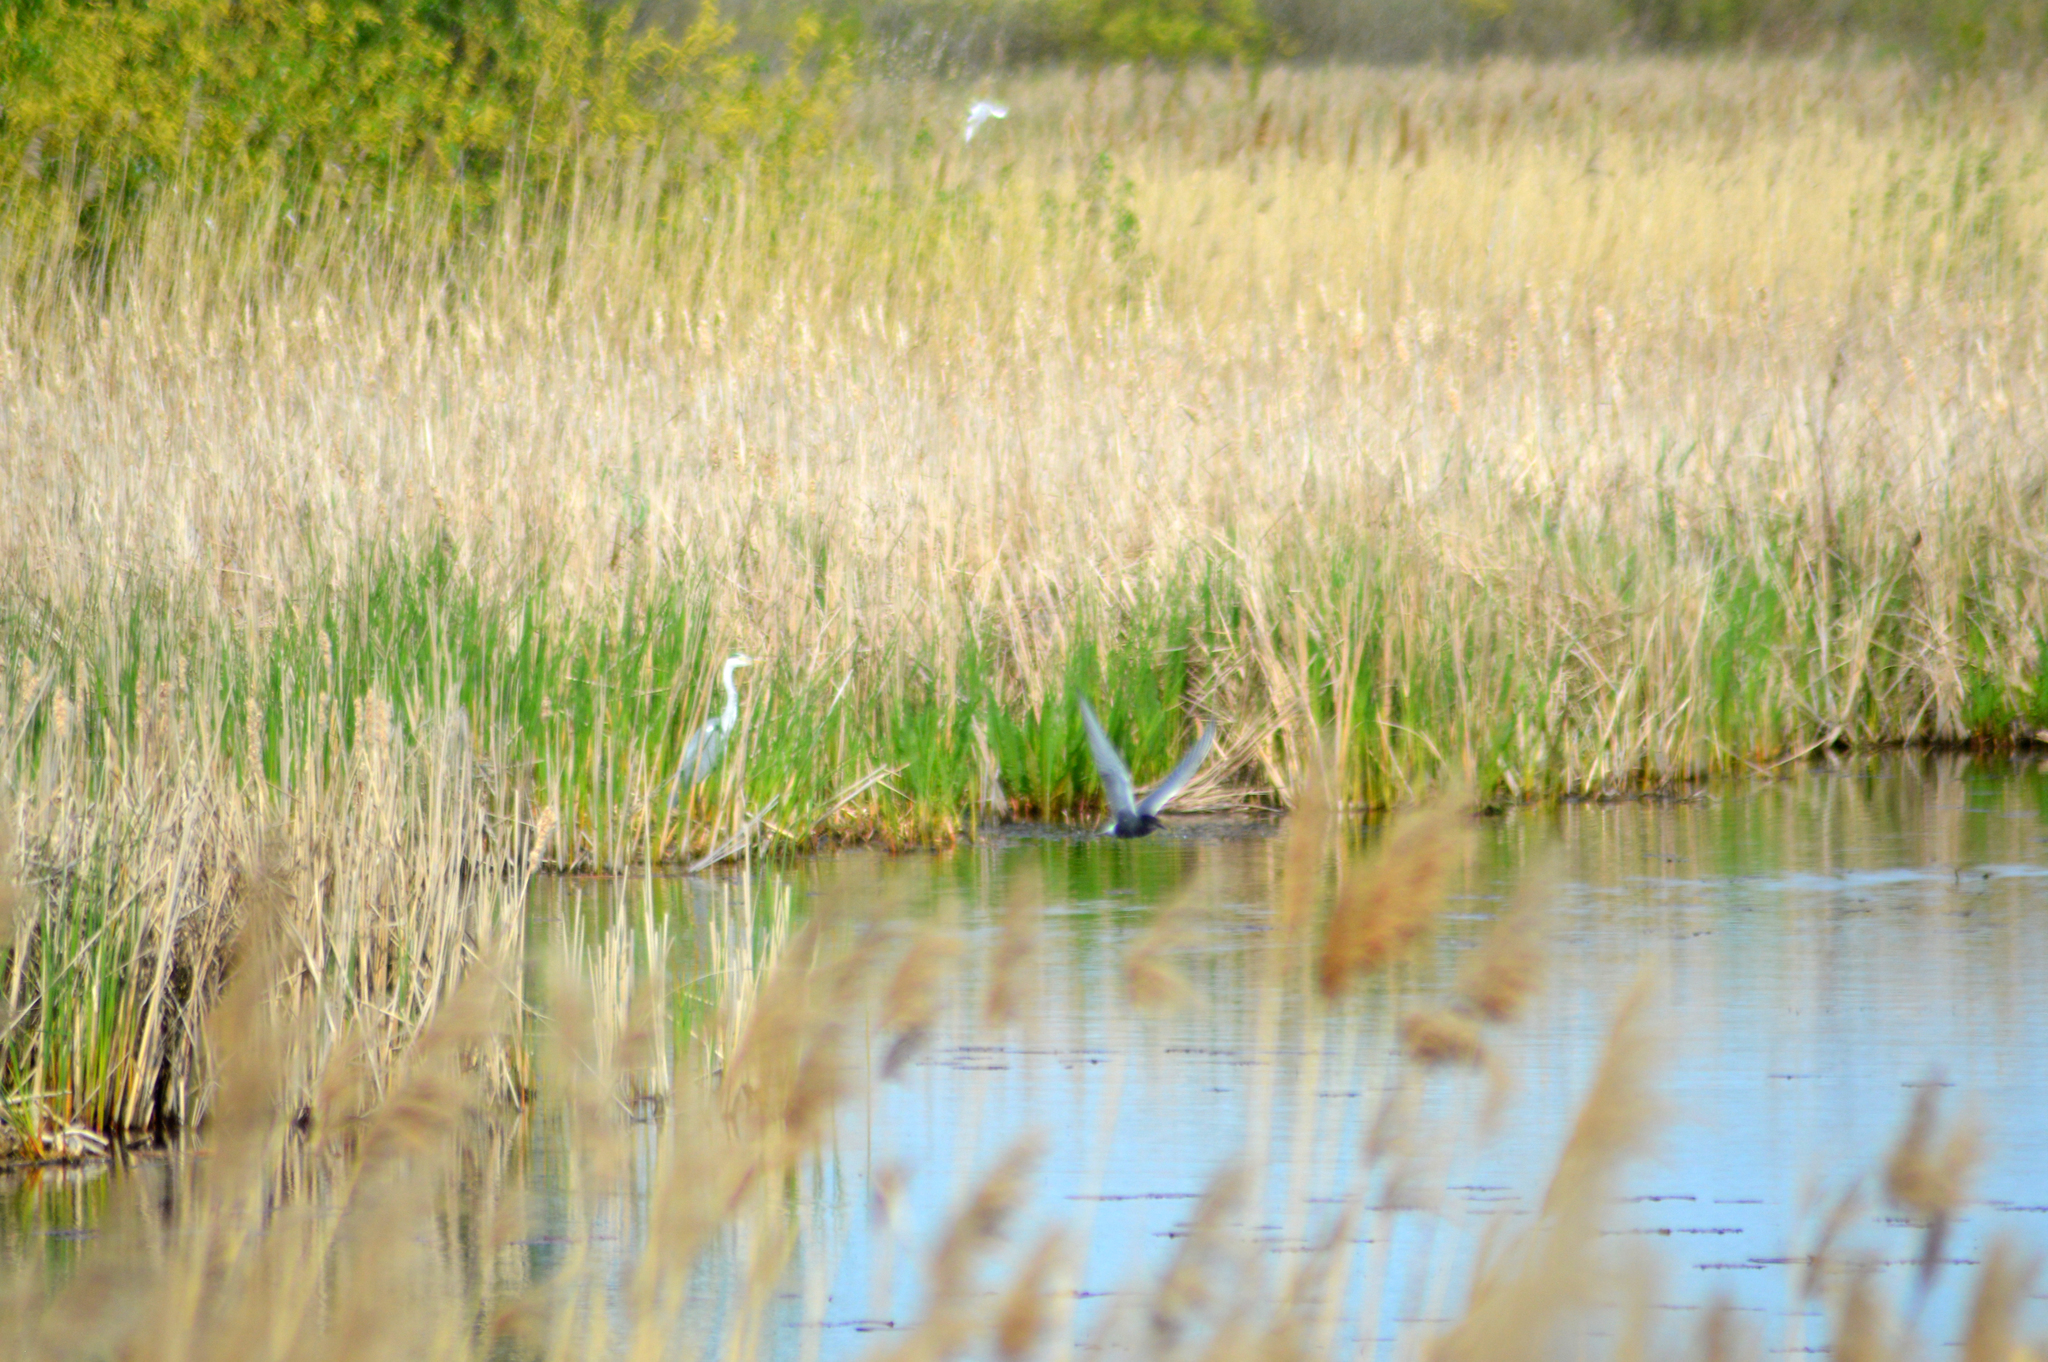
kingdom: Animalia
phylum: Chordata
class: Aves
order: Charadriiformes
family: Laridae
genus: Chlidonias
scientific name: Chlidonias niger
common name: Black tern
